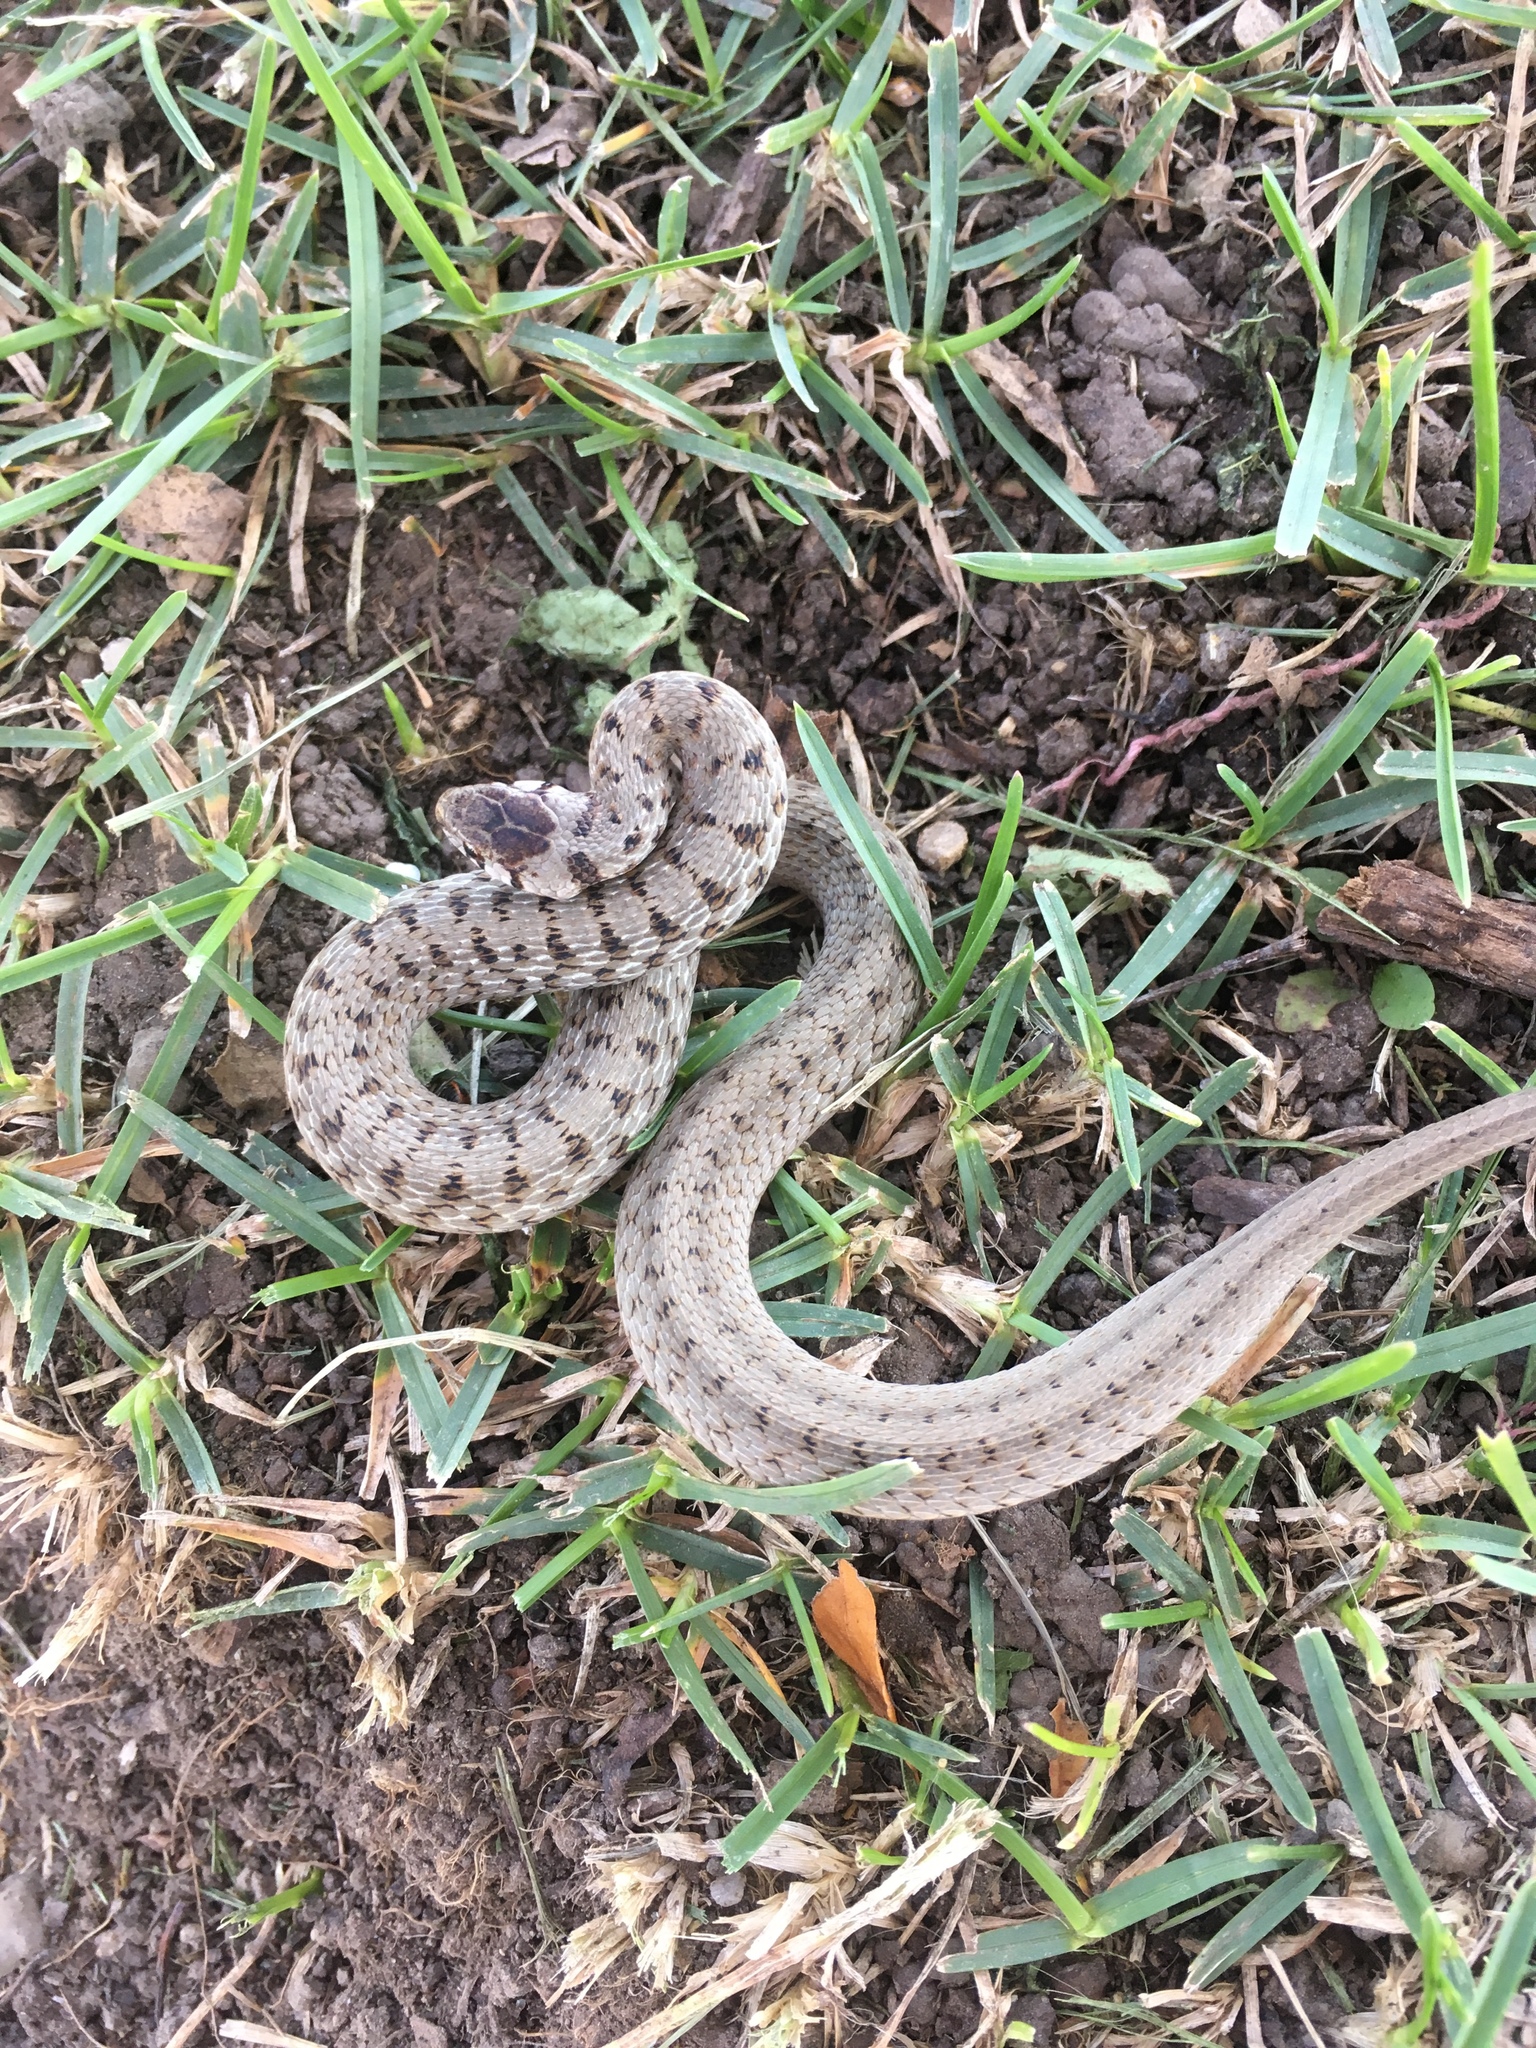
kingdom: Animalia
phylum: Chordata
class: Squamata
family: Colubridae
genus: Storeria
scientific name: Storeria dekayi
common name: (dekay’s) brown snake
